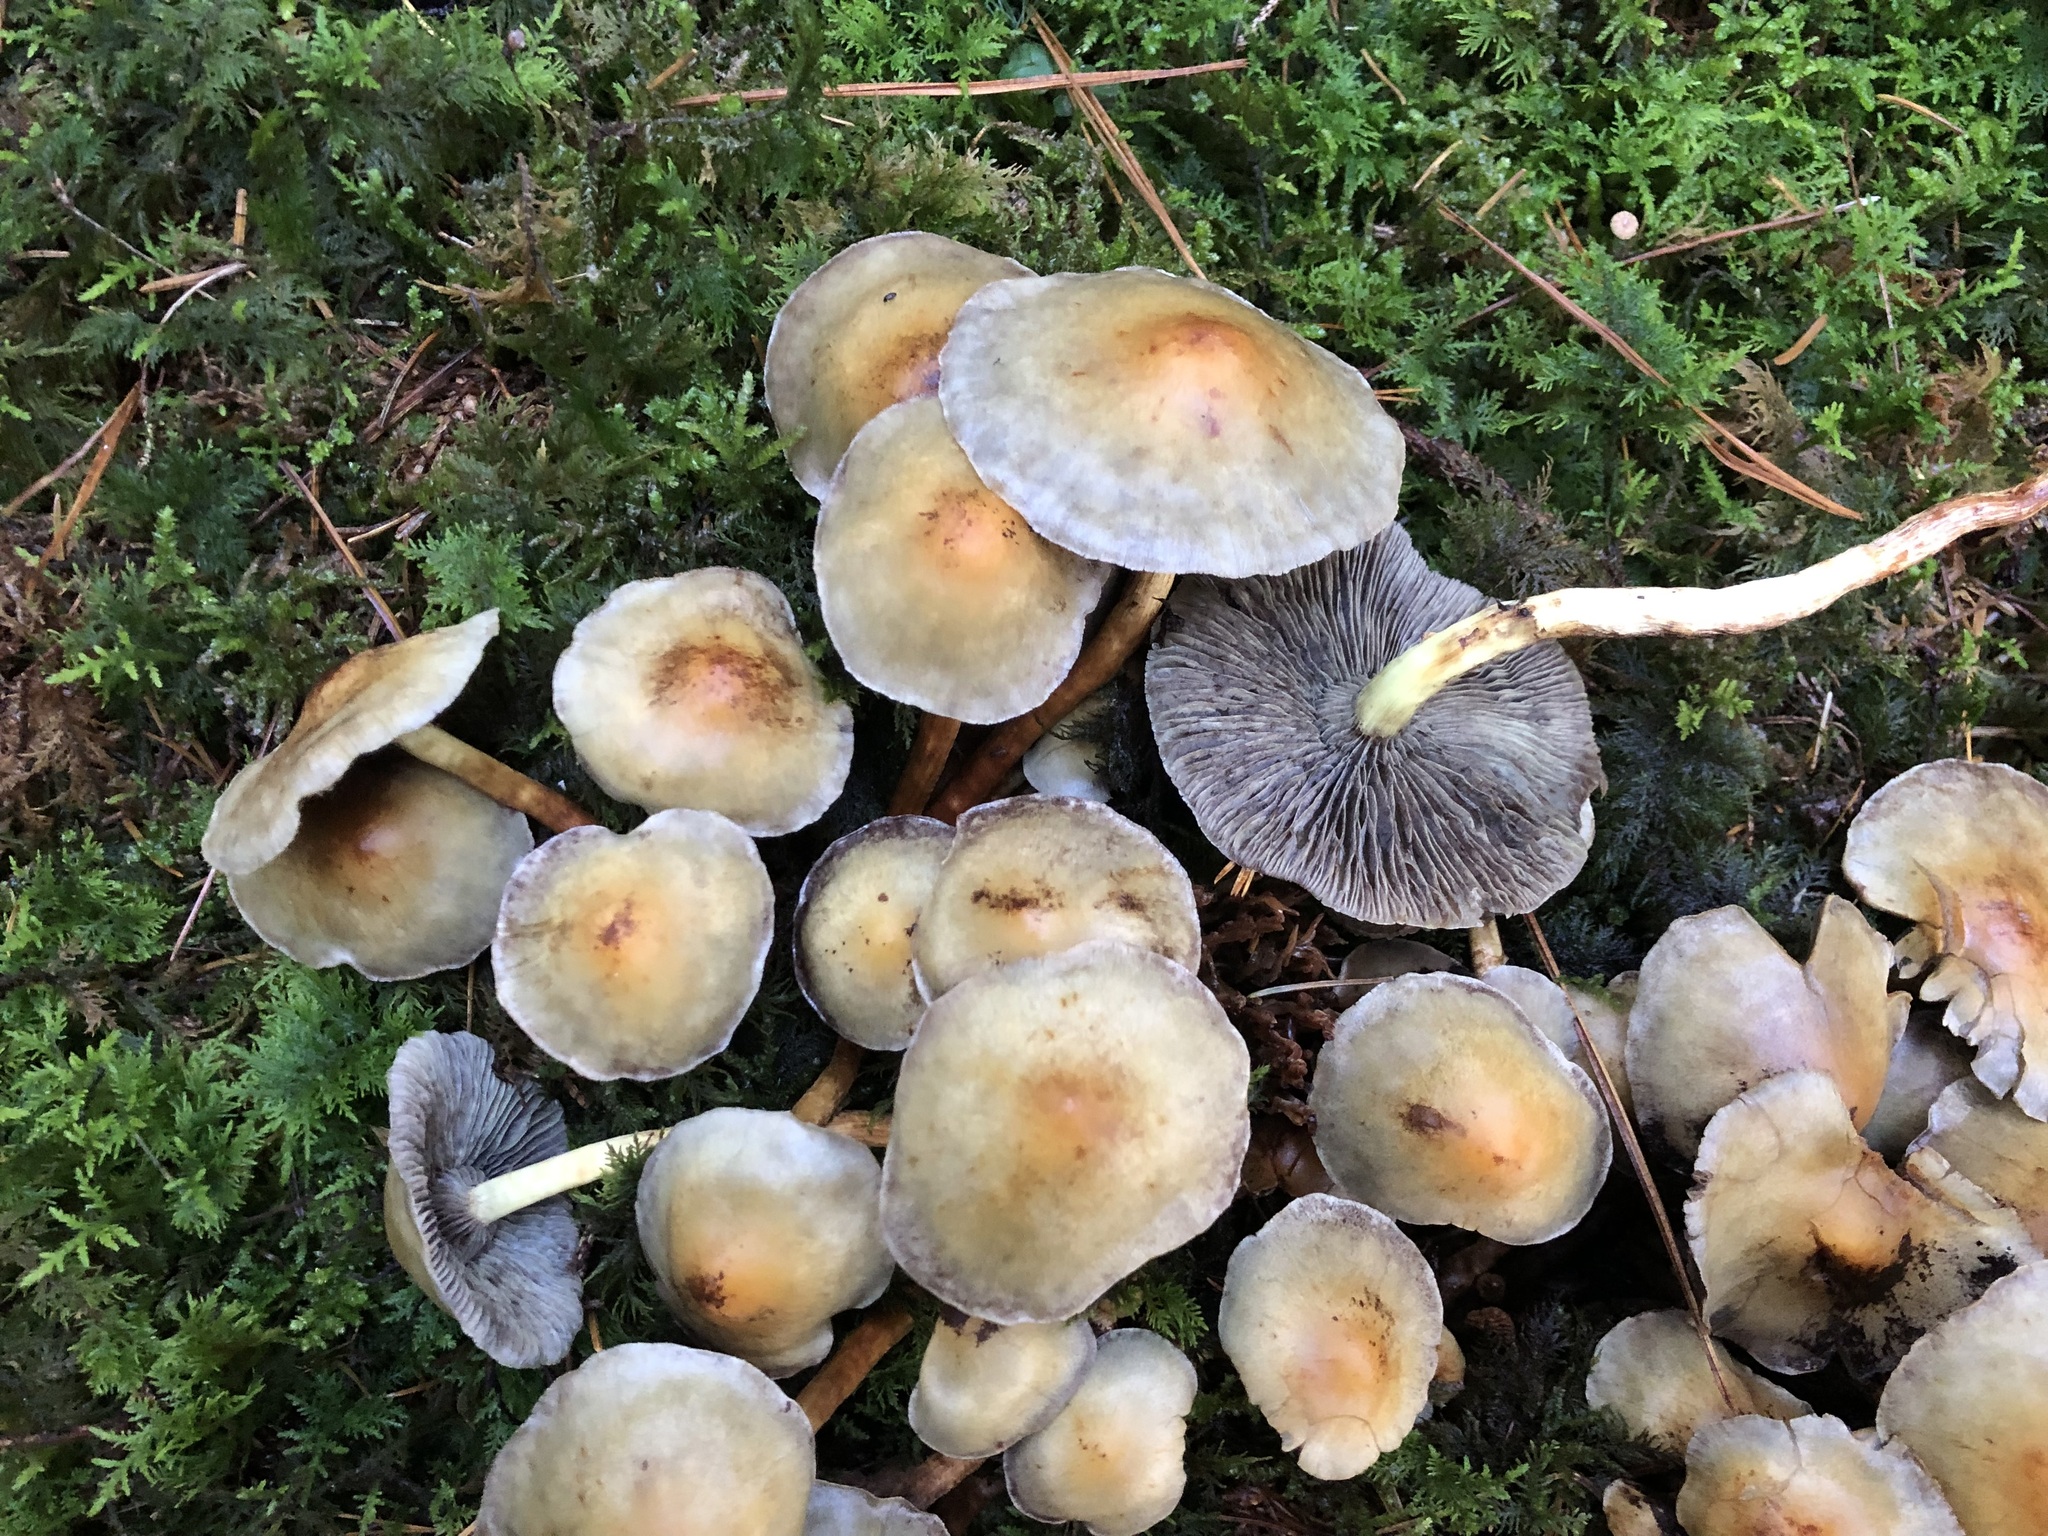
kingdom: Fungi
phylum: Basidiomycota
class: Agaricomycetes
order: Agaricales
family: Strophariaceae
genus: Hypholoma
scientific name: Hypholoma fasciculare
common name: Sulphur tuft
